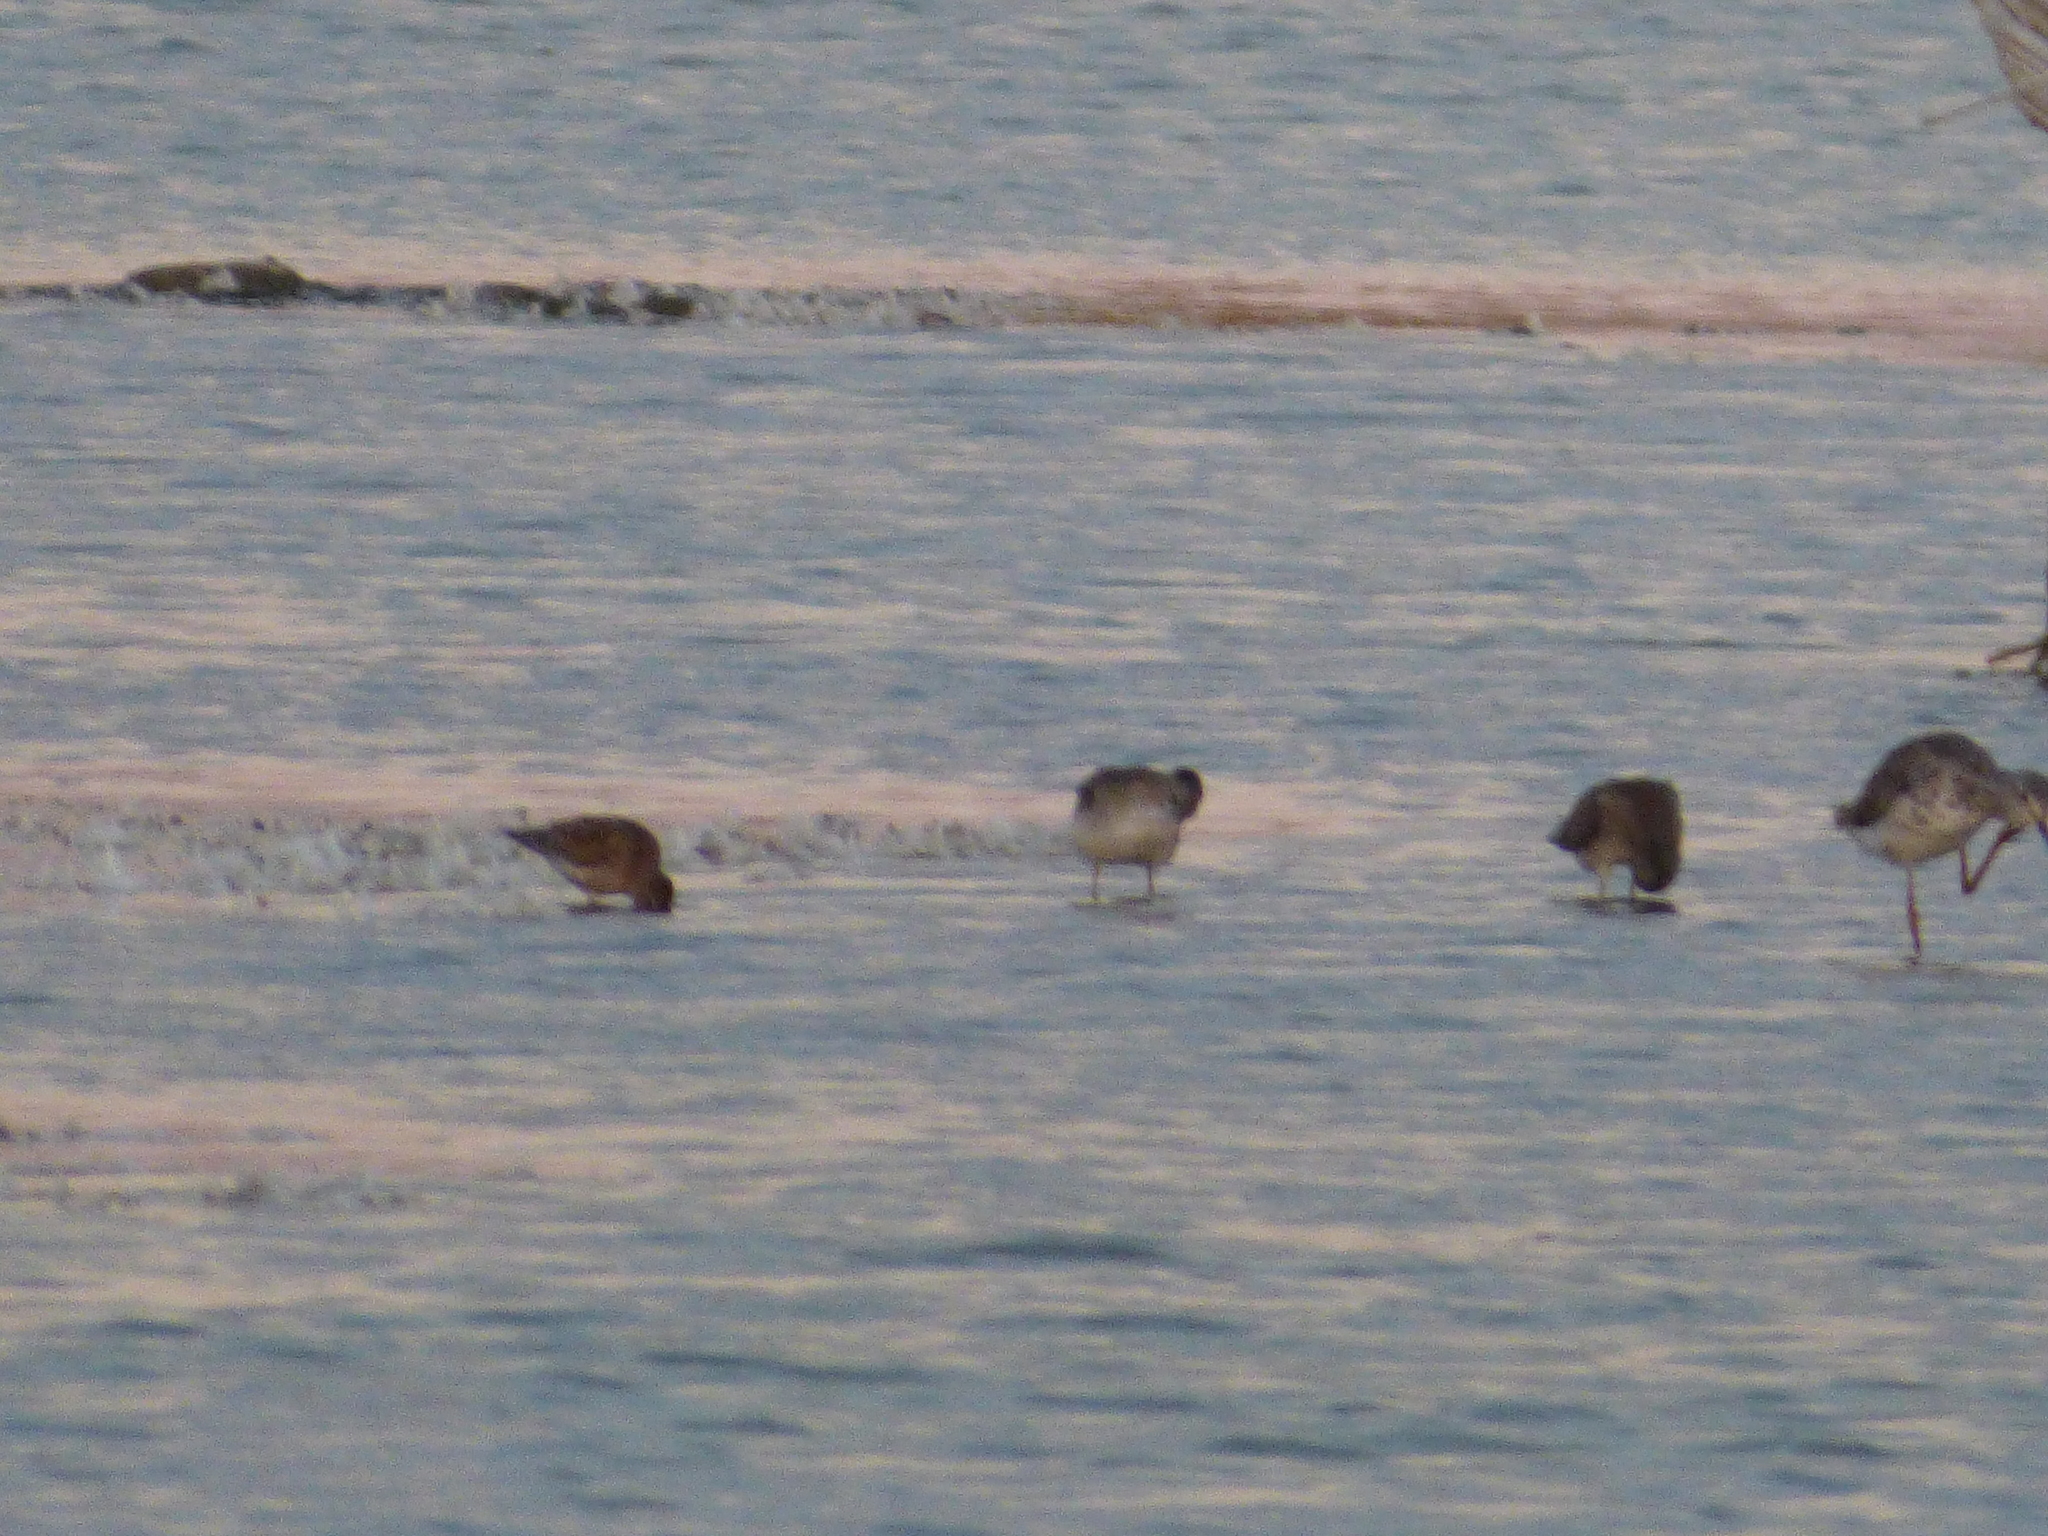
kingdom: Animalia
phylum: Chordata
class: Aves
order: Charadriiformes
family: Scolopacidae
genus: Tringa
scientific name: Tringa flavipes
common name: Lesser yellowlegs
